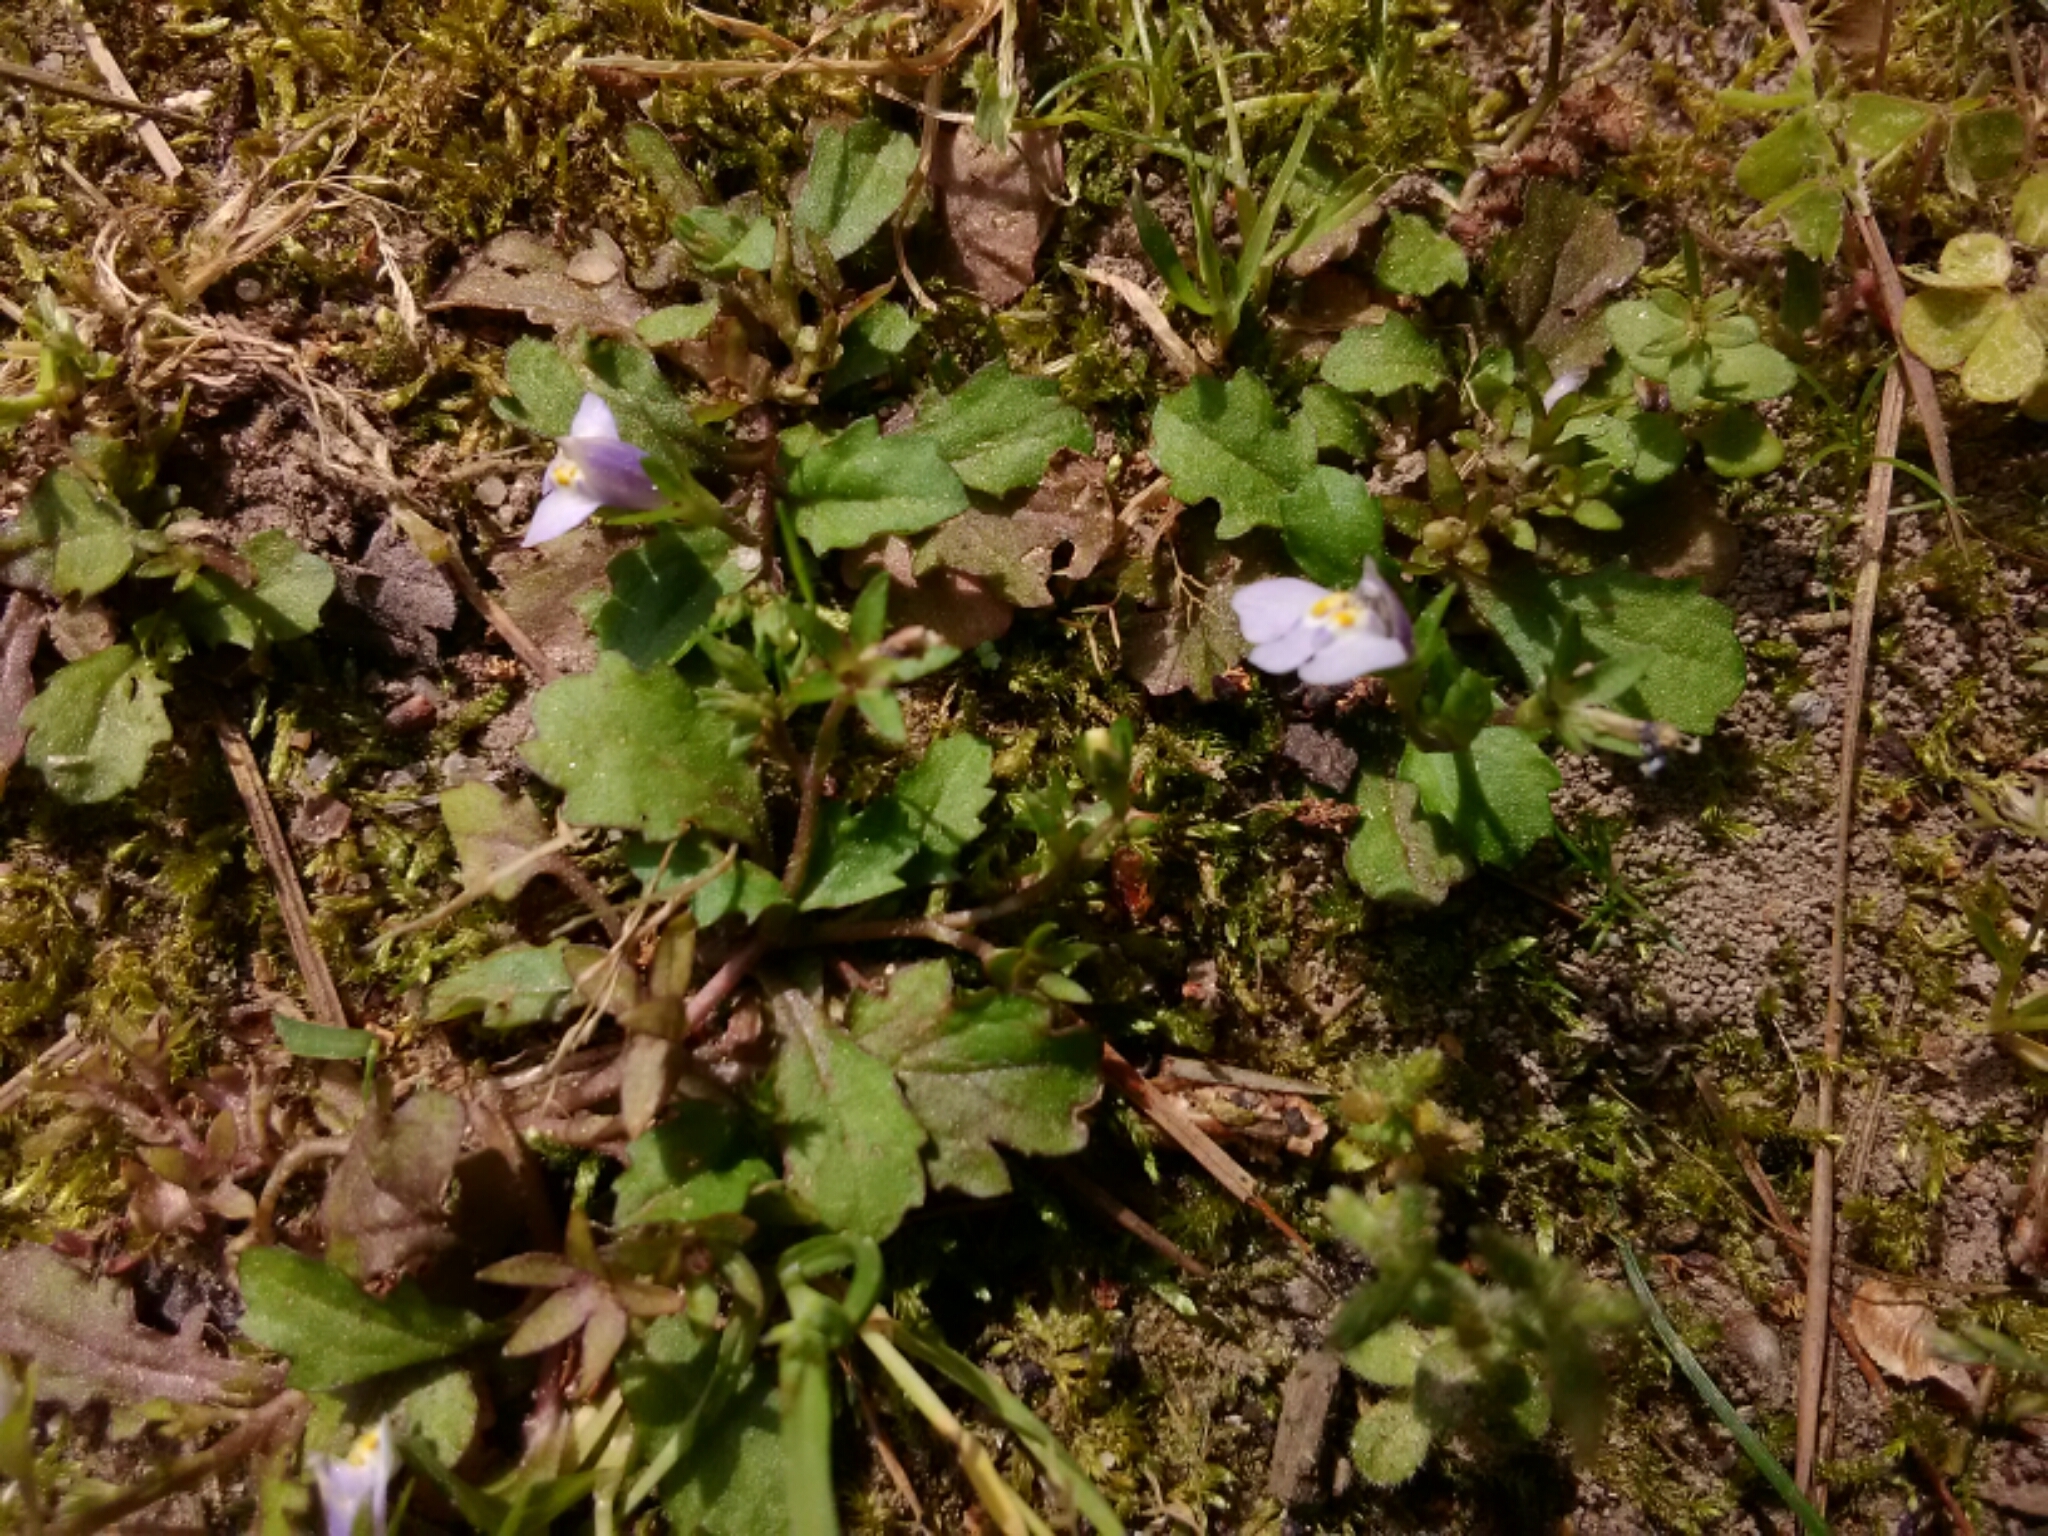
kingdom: Plantae
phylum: Tracheophyta
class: Magnoliopsida
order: Lamiales
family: Mazaceae
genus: Mazus
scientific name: Mazus pumilus
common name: Japanese mazus
